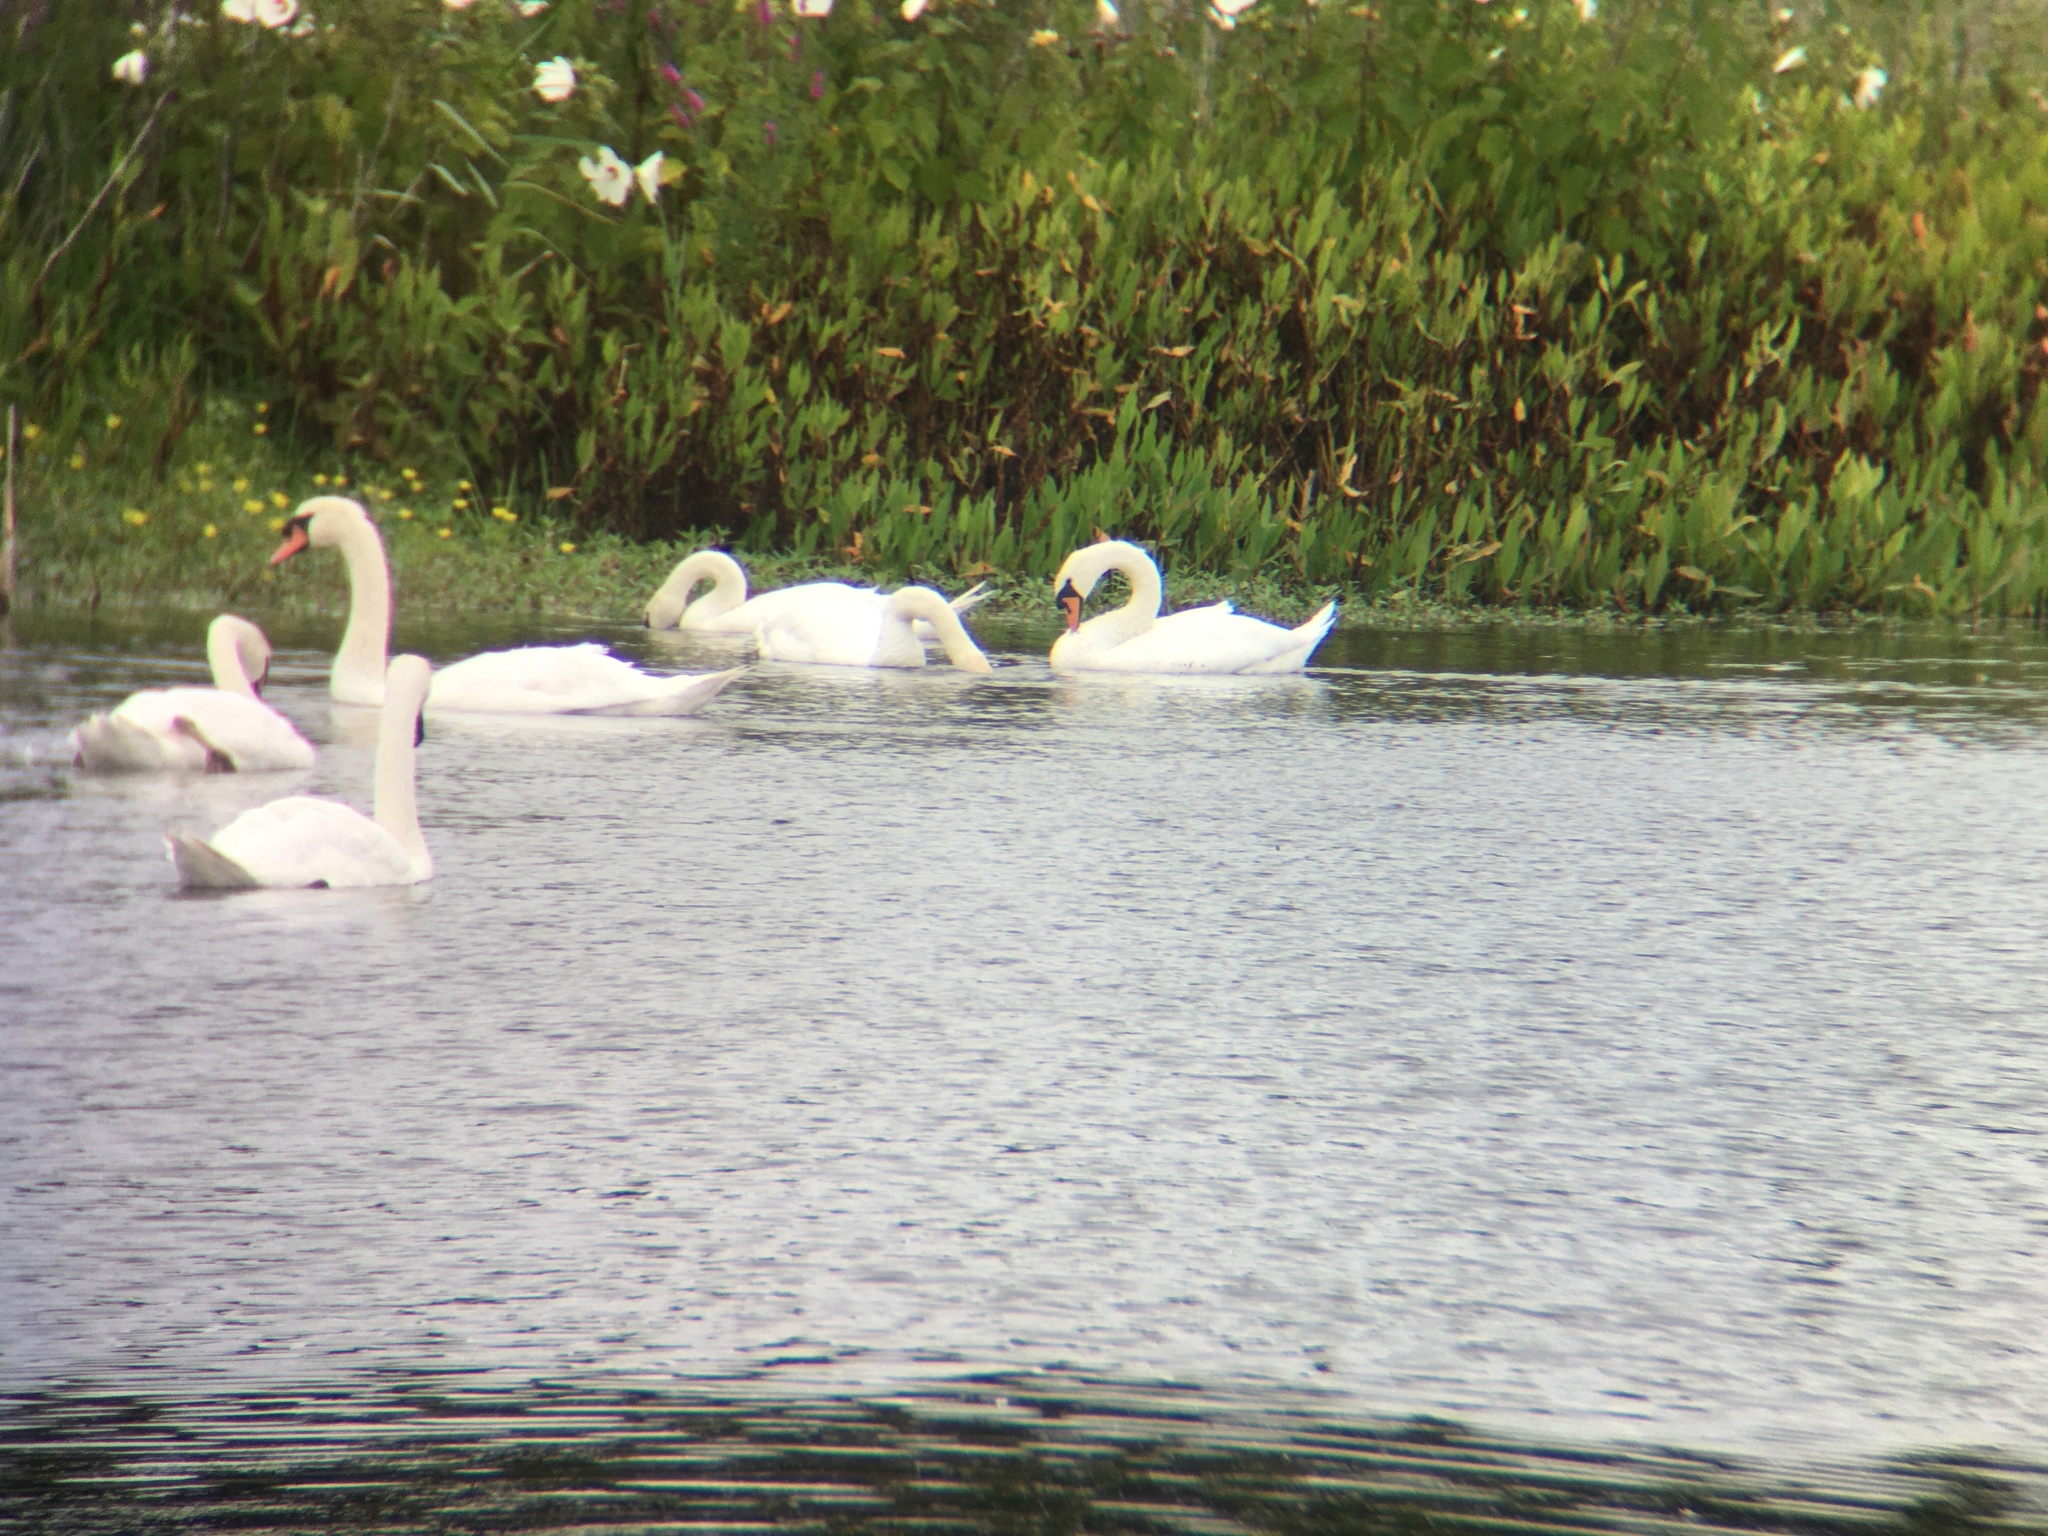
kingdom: Animalia
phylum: Chordata
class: Aves
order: Anseriformes
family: Anatidae
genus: Cygnus
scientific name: Cygnus olor
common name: Mute swan
